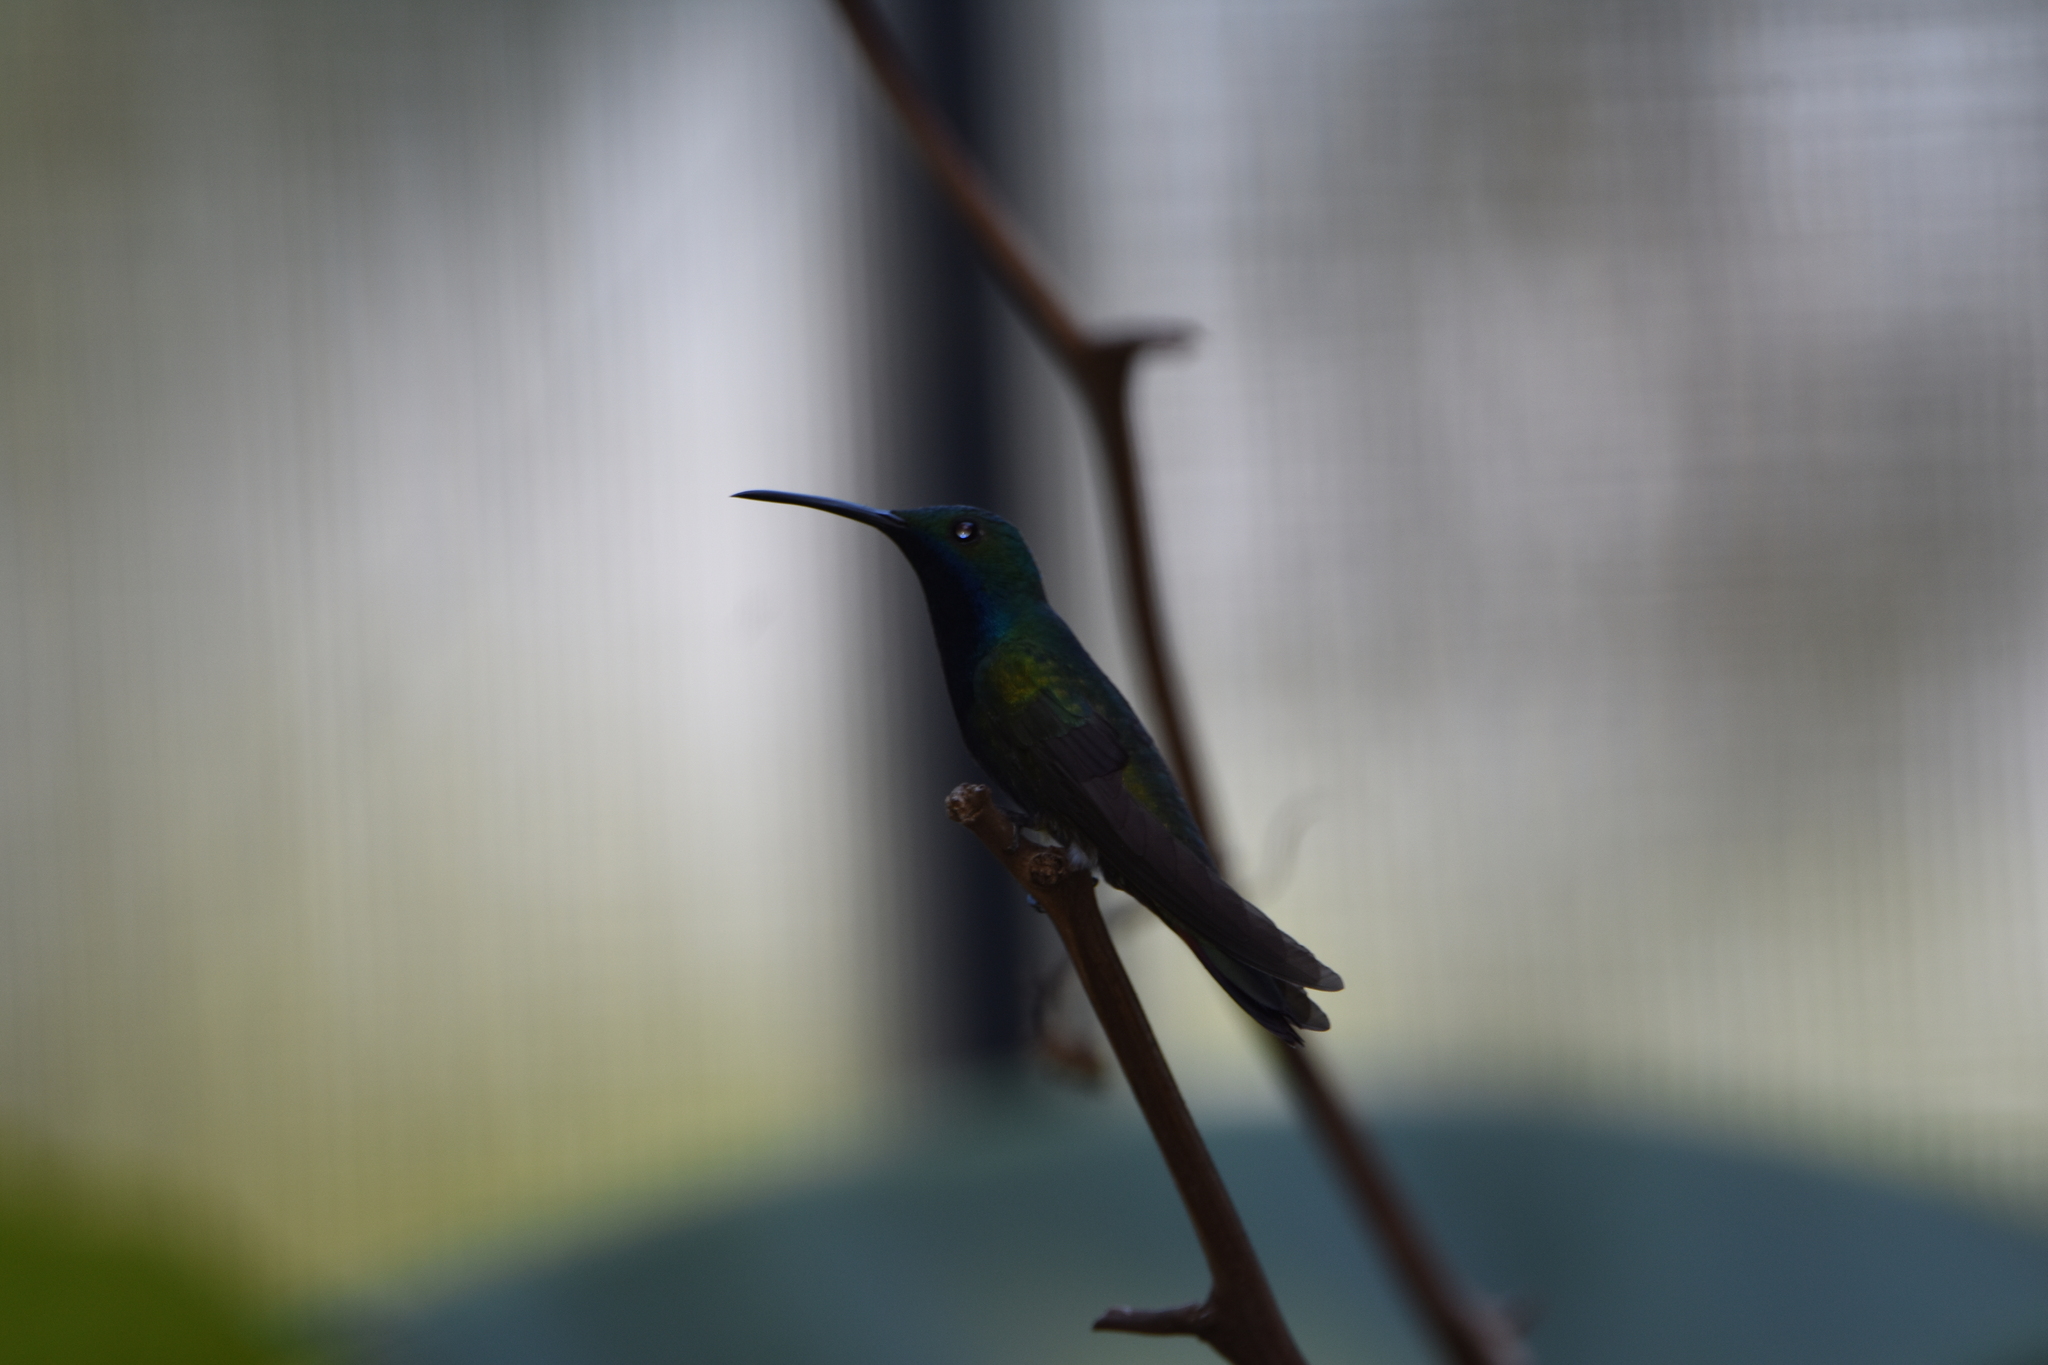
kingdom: Animalia
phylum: Chordata
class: Aves
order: Apodiformes
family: Trochilidae
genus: Anthracothorax
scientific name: Anthracothorax nigricollis
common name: Black-throated mango
